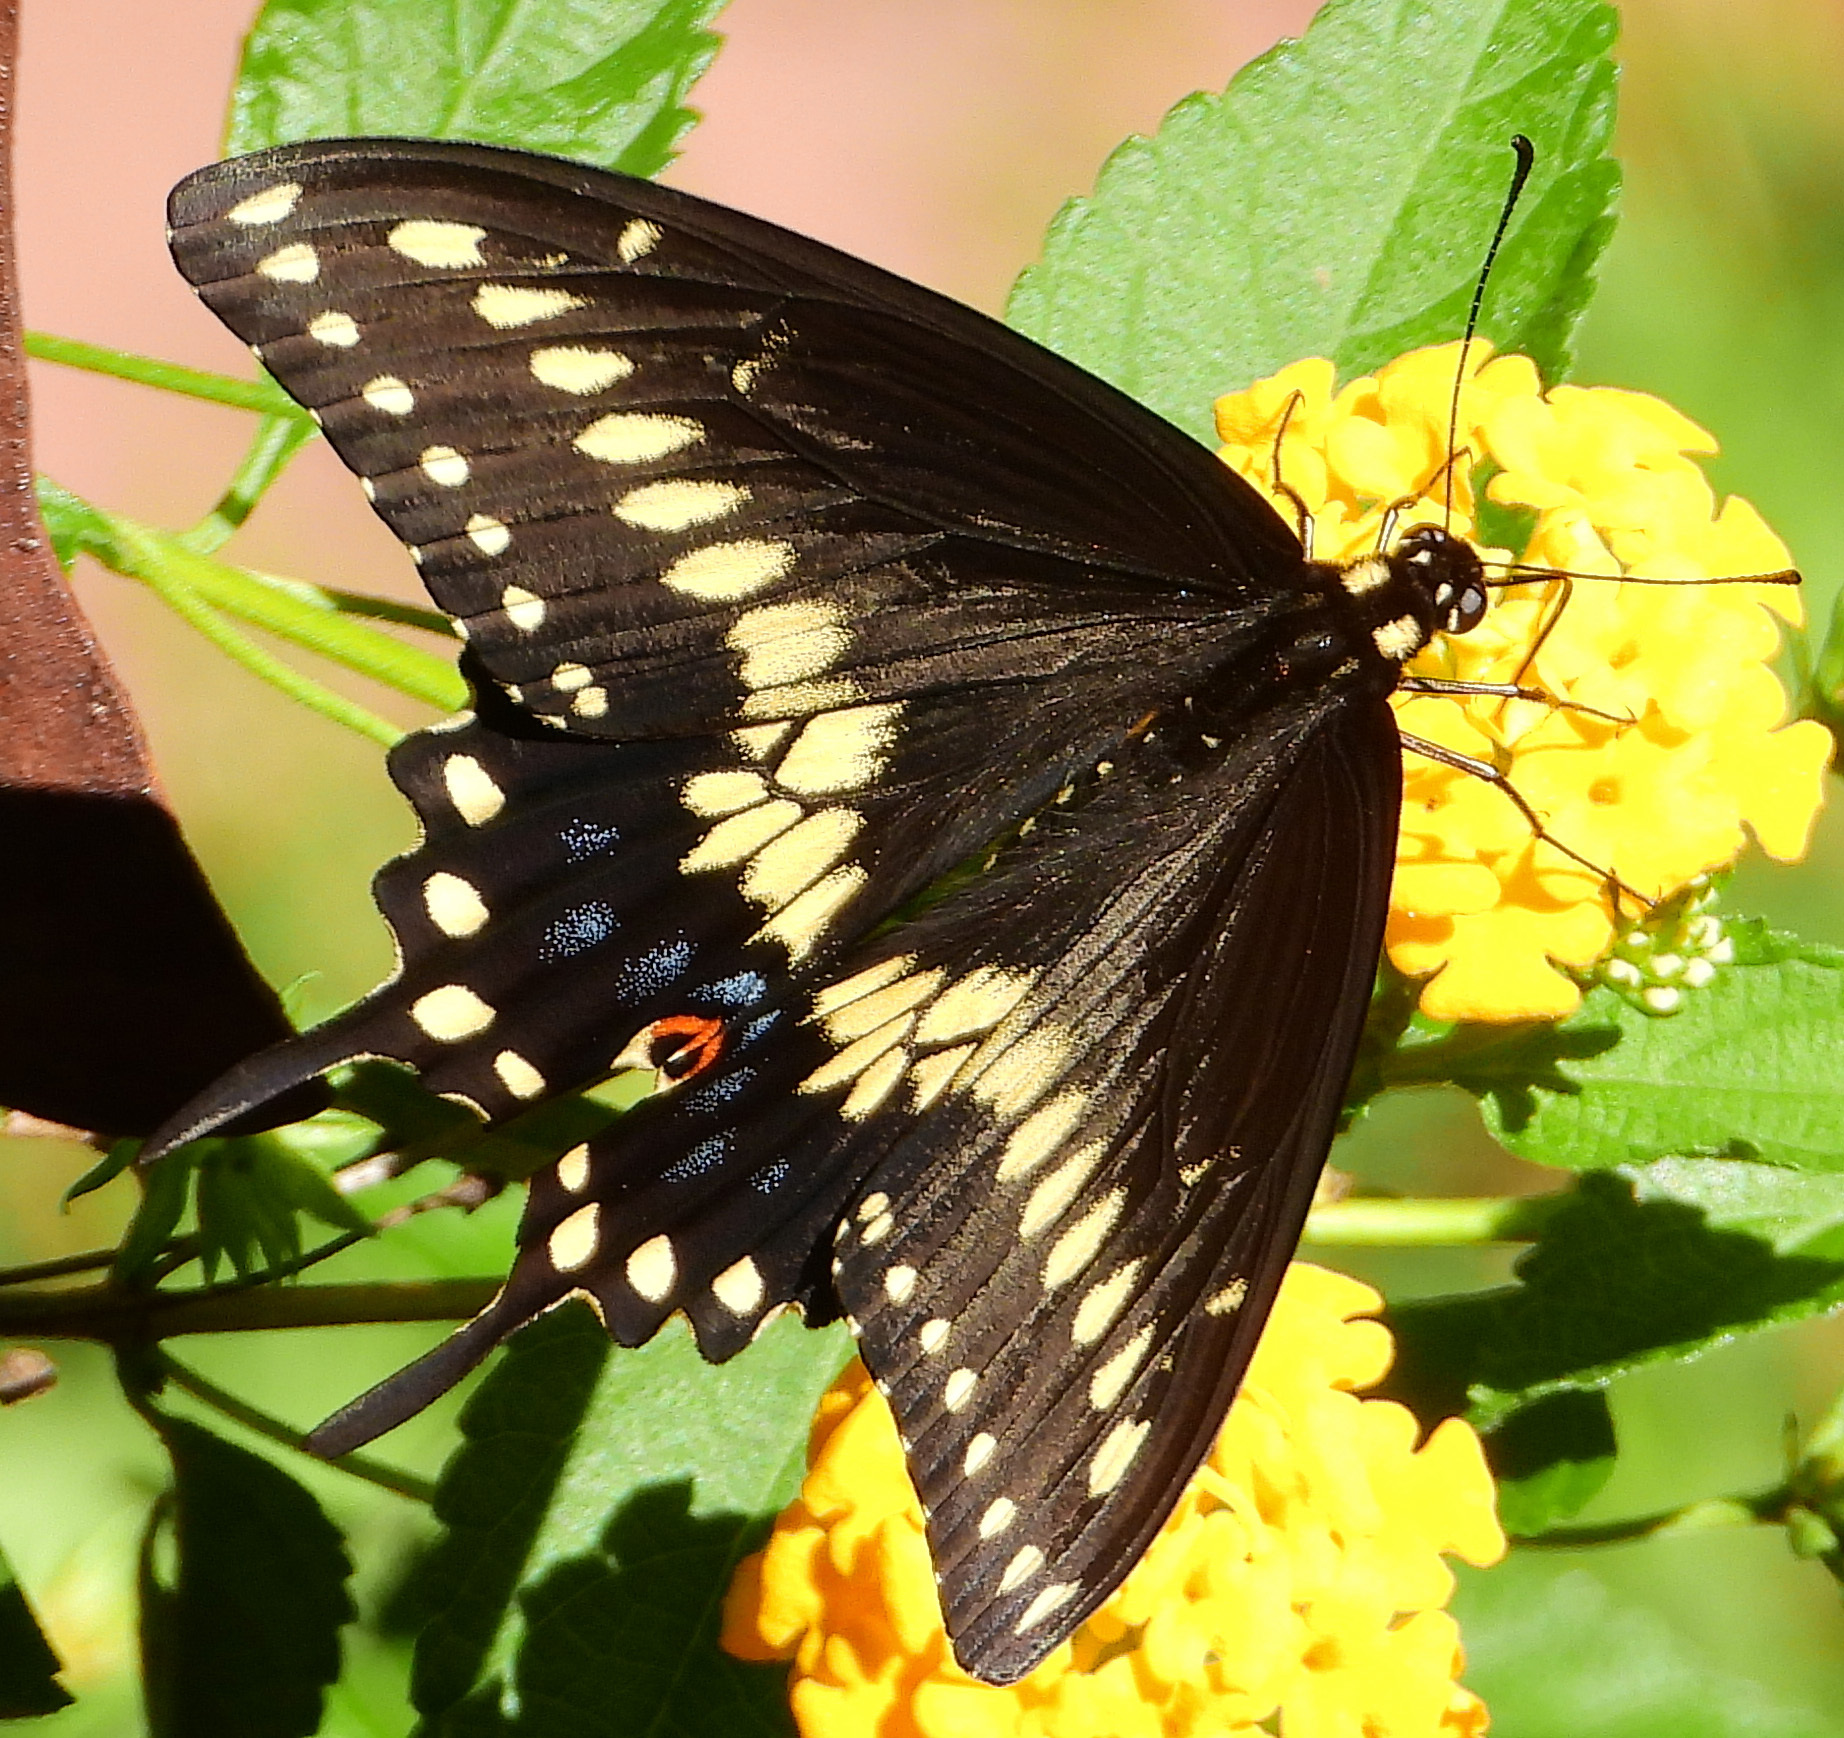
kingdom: Animalia
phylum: Arthropoda
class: Insecta
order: Lepidoptera
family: Papilionidae
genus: Papilio
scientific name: Papilio polyxenes
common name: Black swallowtail
